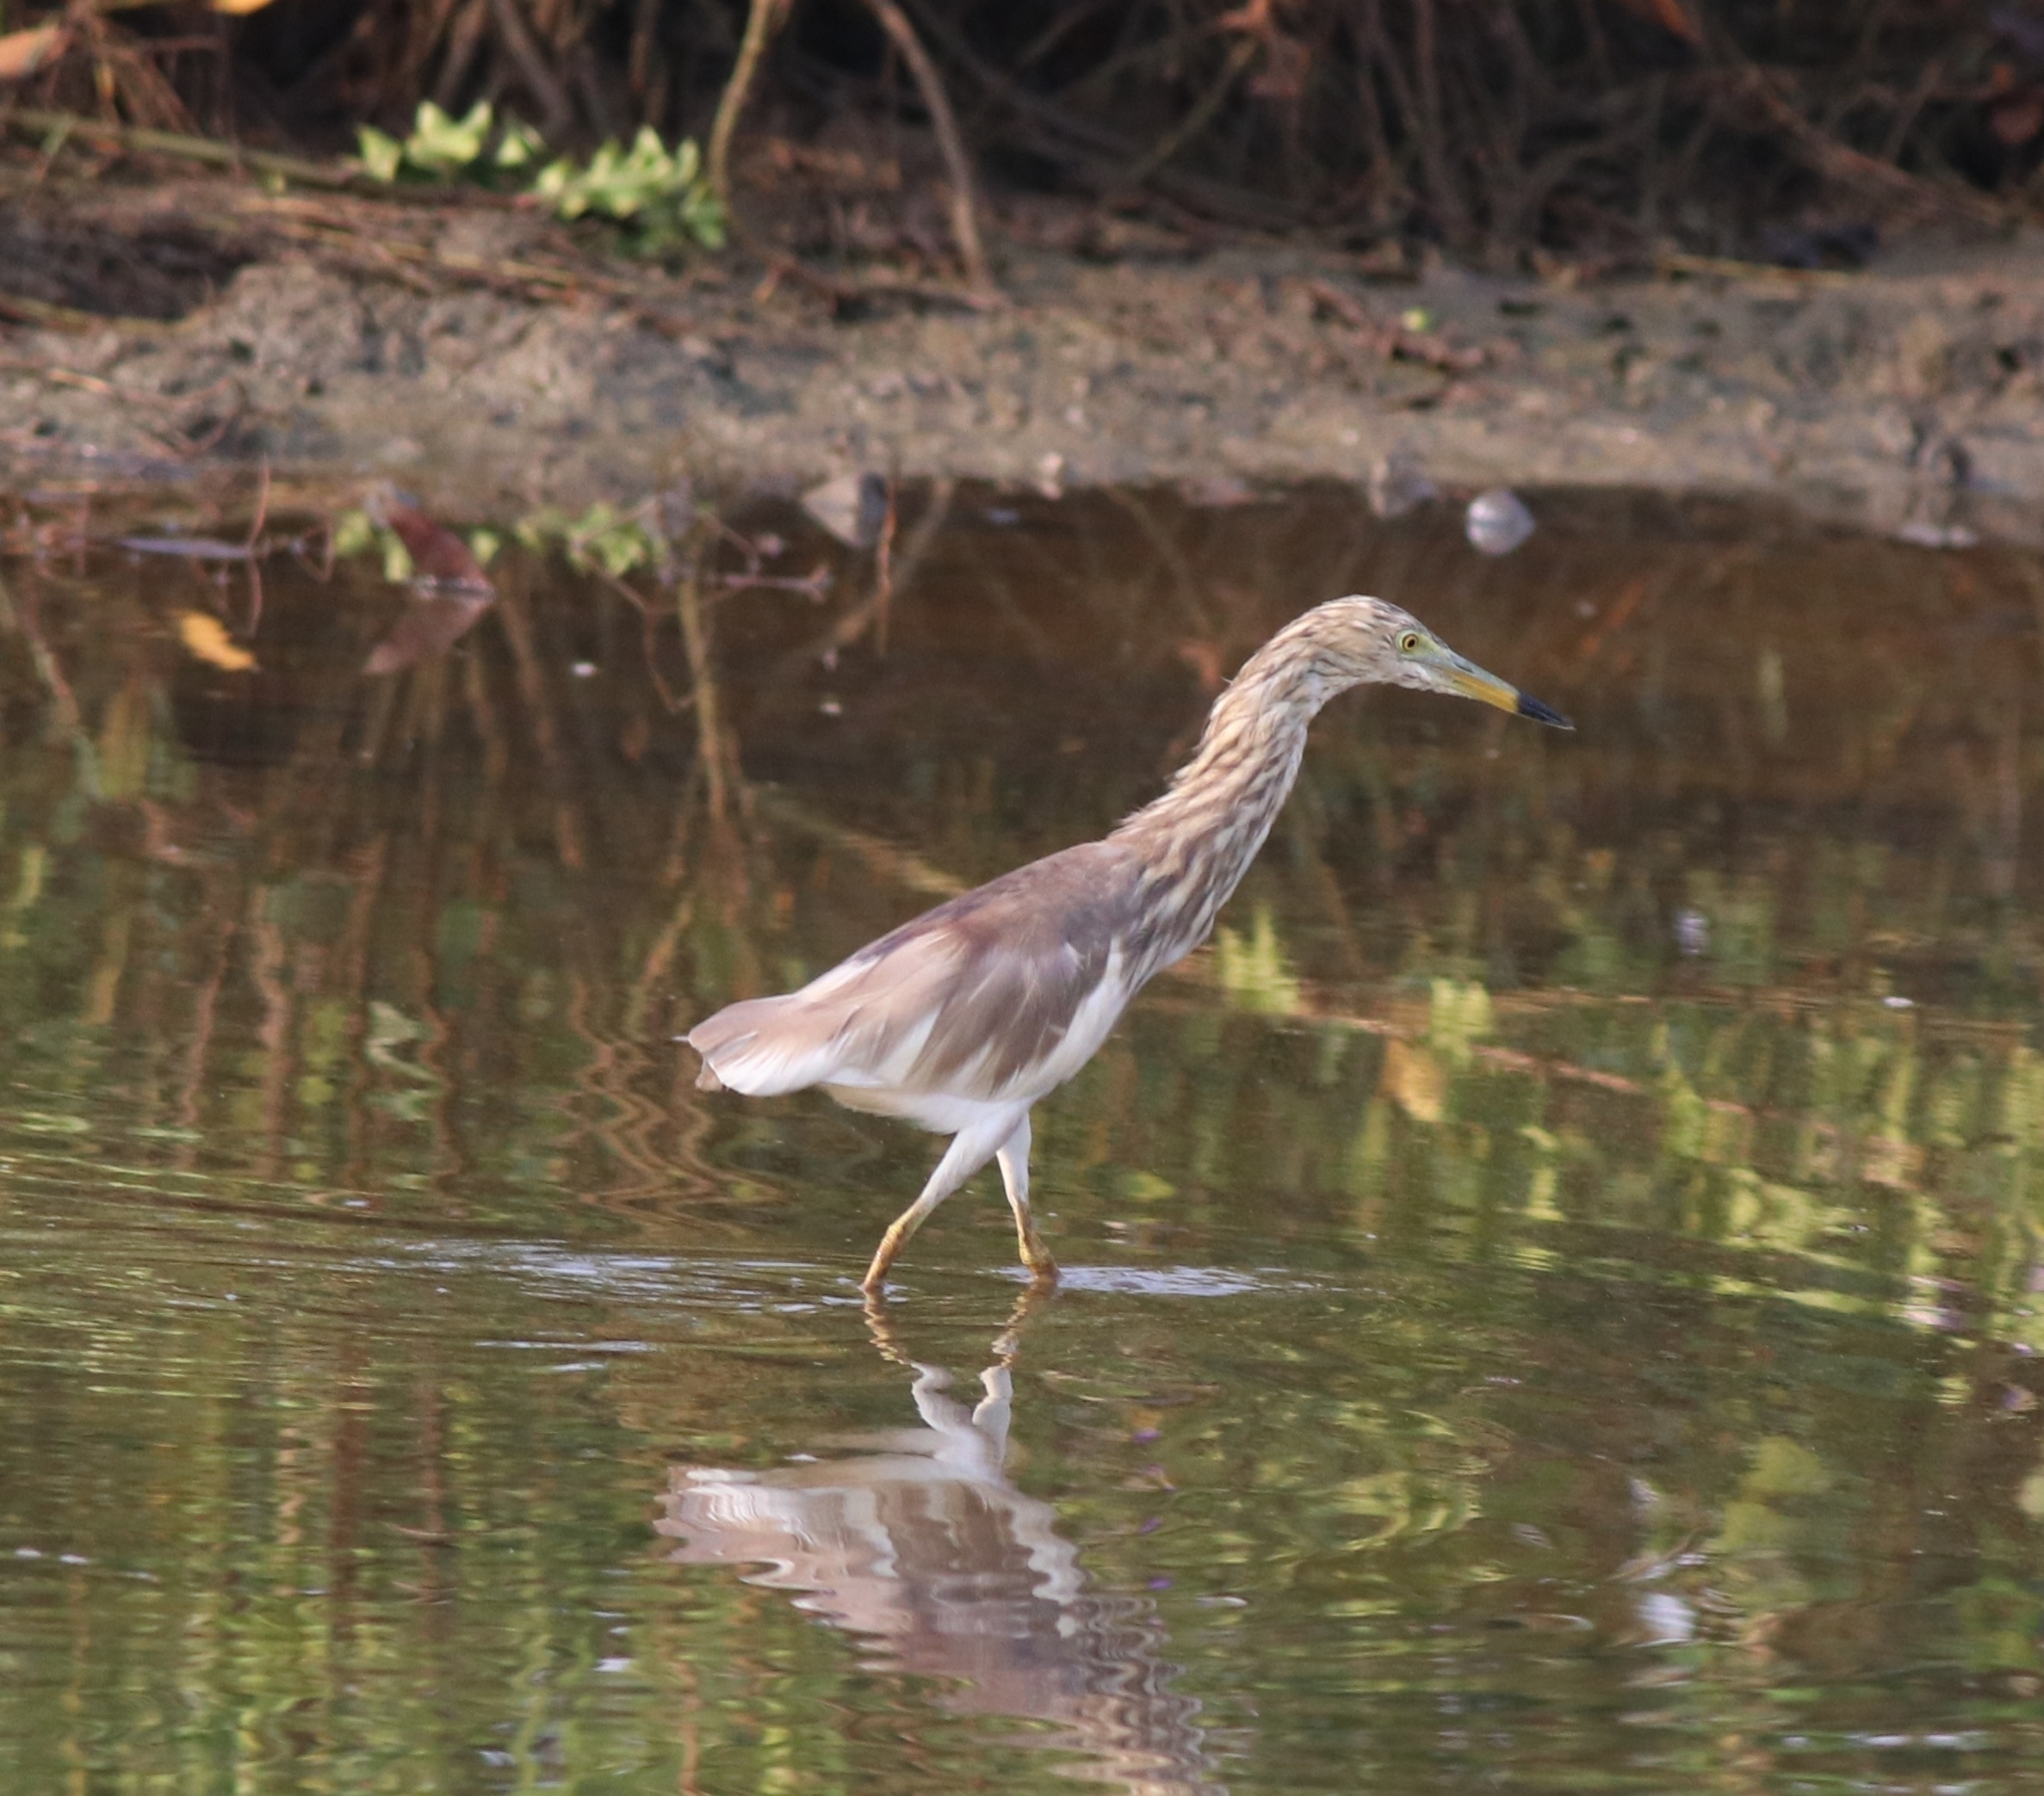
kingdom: Animalia
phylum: Chordata
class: Aves
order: Pelecaniformes
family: Ardeidae
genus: Ardeola
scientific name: Ardeola grayii
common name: Indian pond heron
